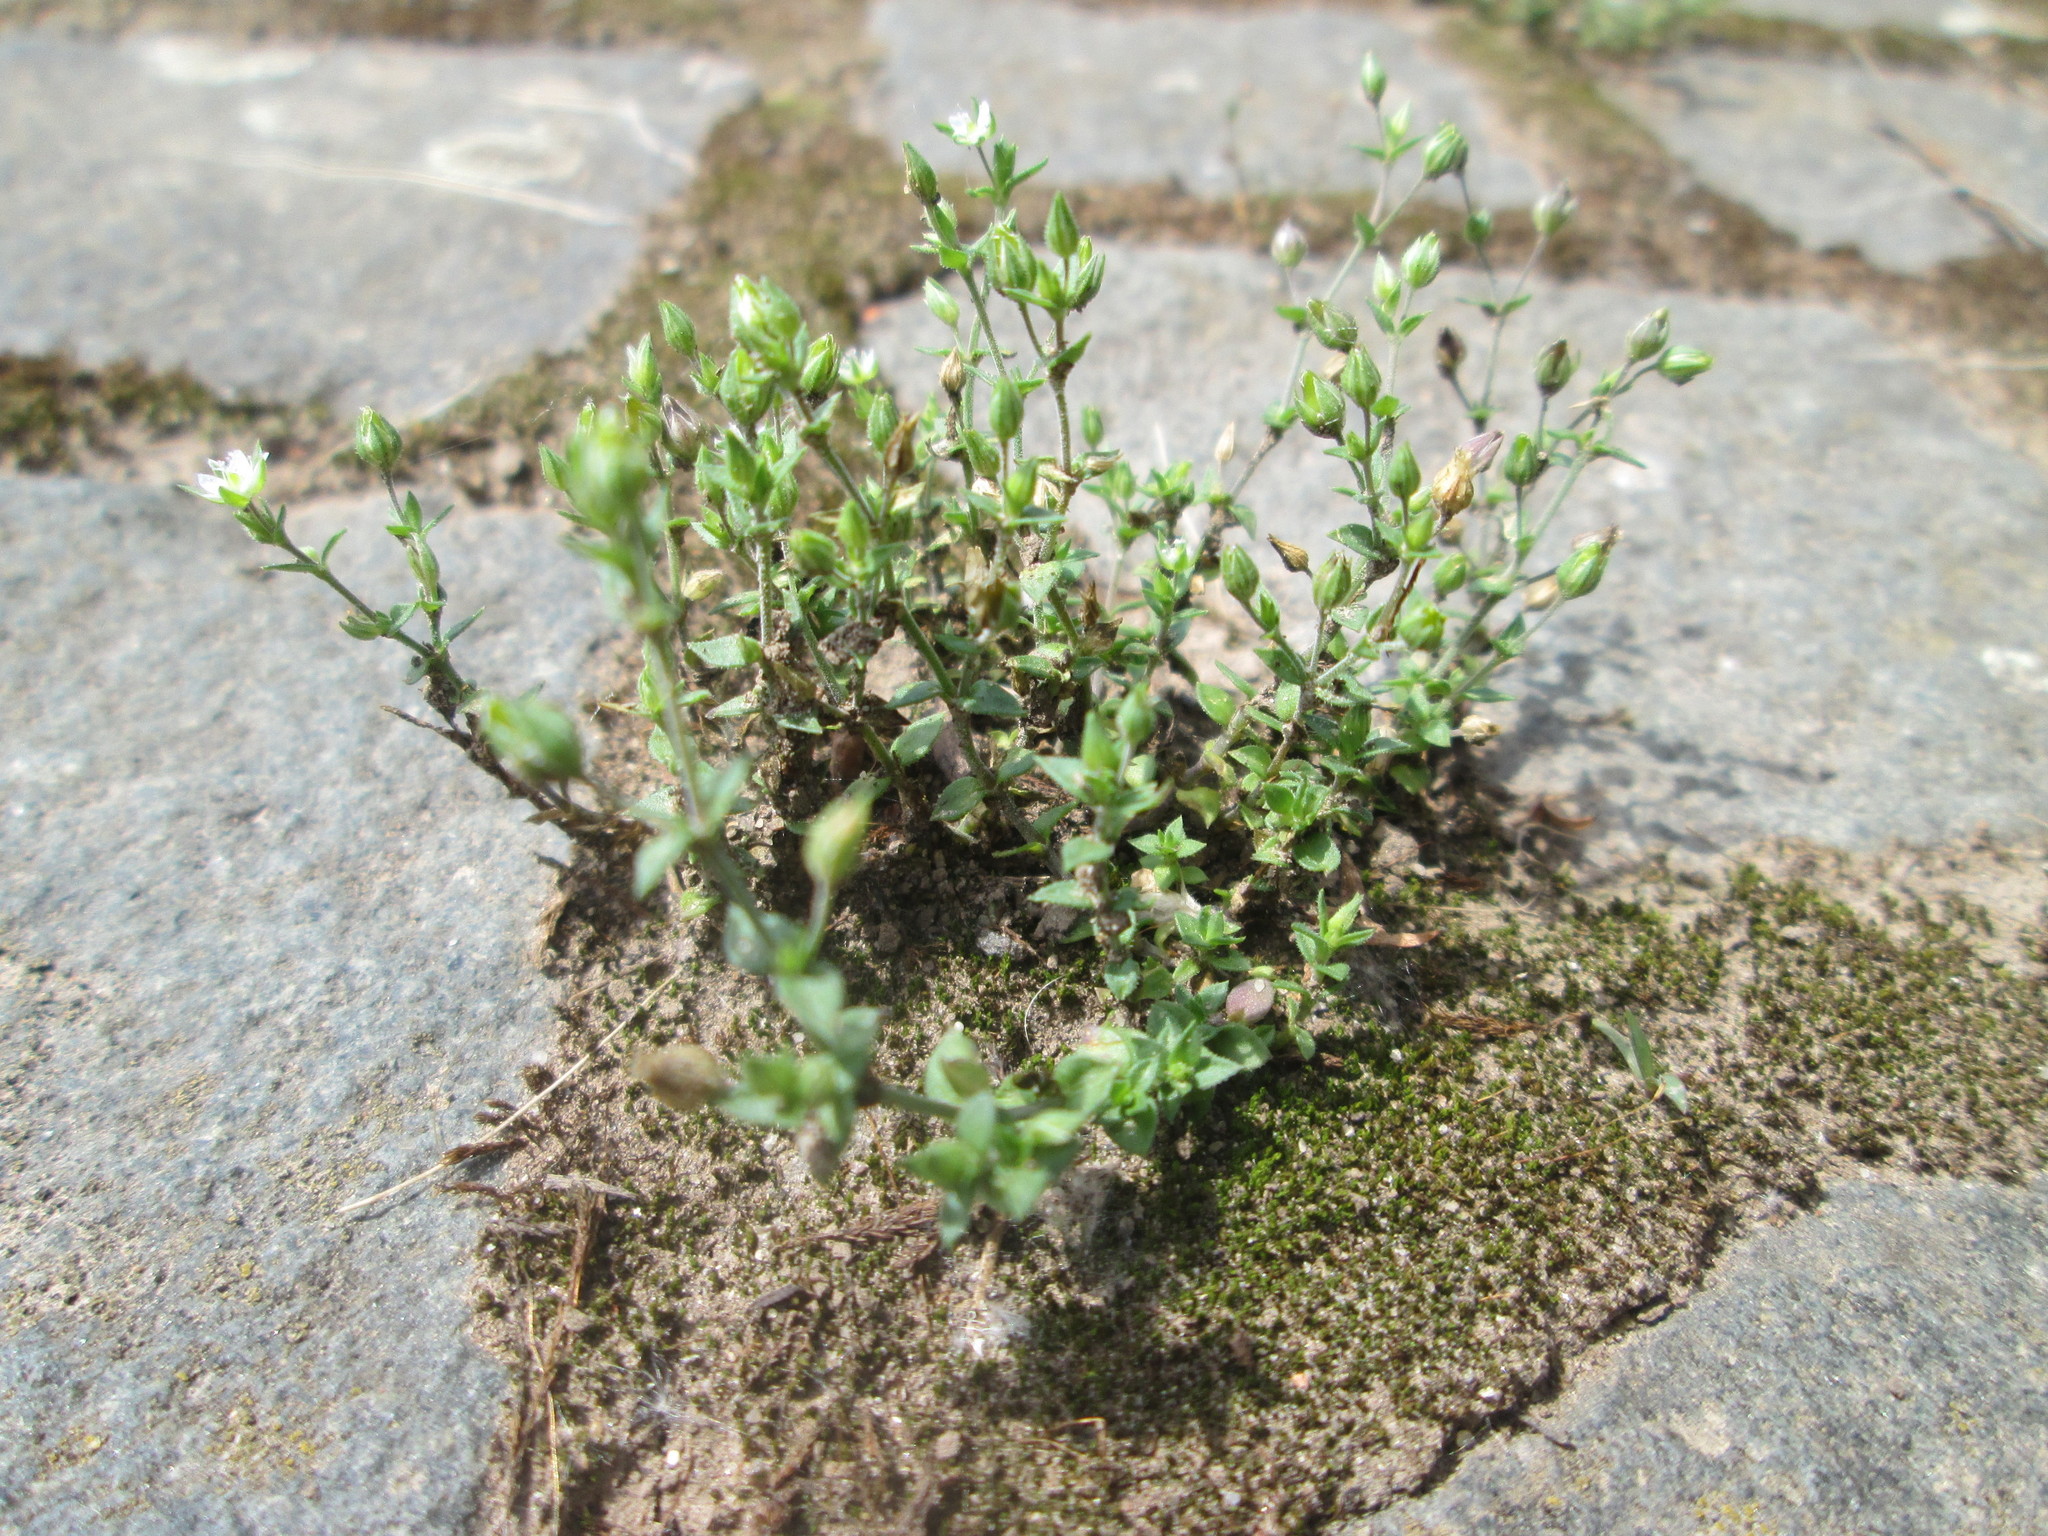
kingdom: Plantae
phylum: Tracheophyta
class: Magnoliopsida
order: Caryophyllales
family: Caryophyllaceae
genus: Arenaria
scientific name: Arenaria serpyllifolia
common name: Thyme-leaved sandwort
